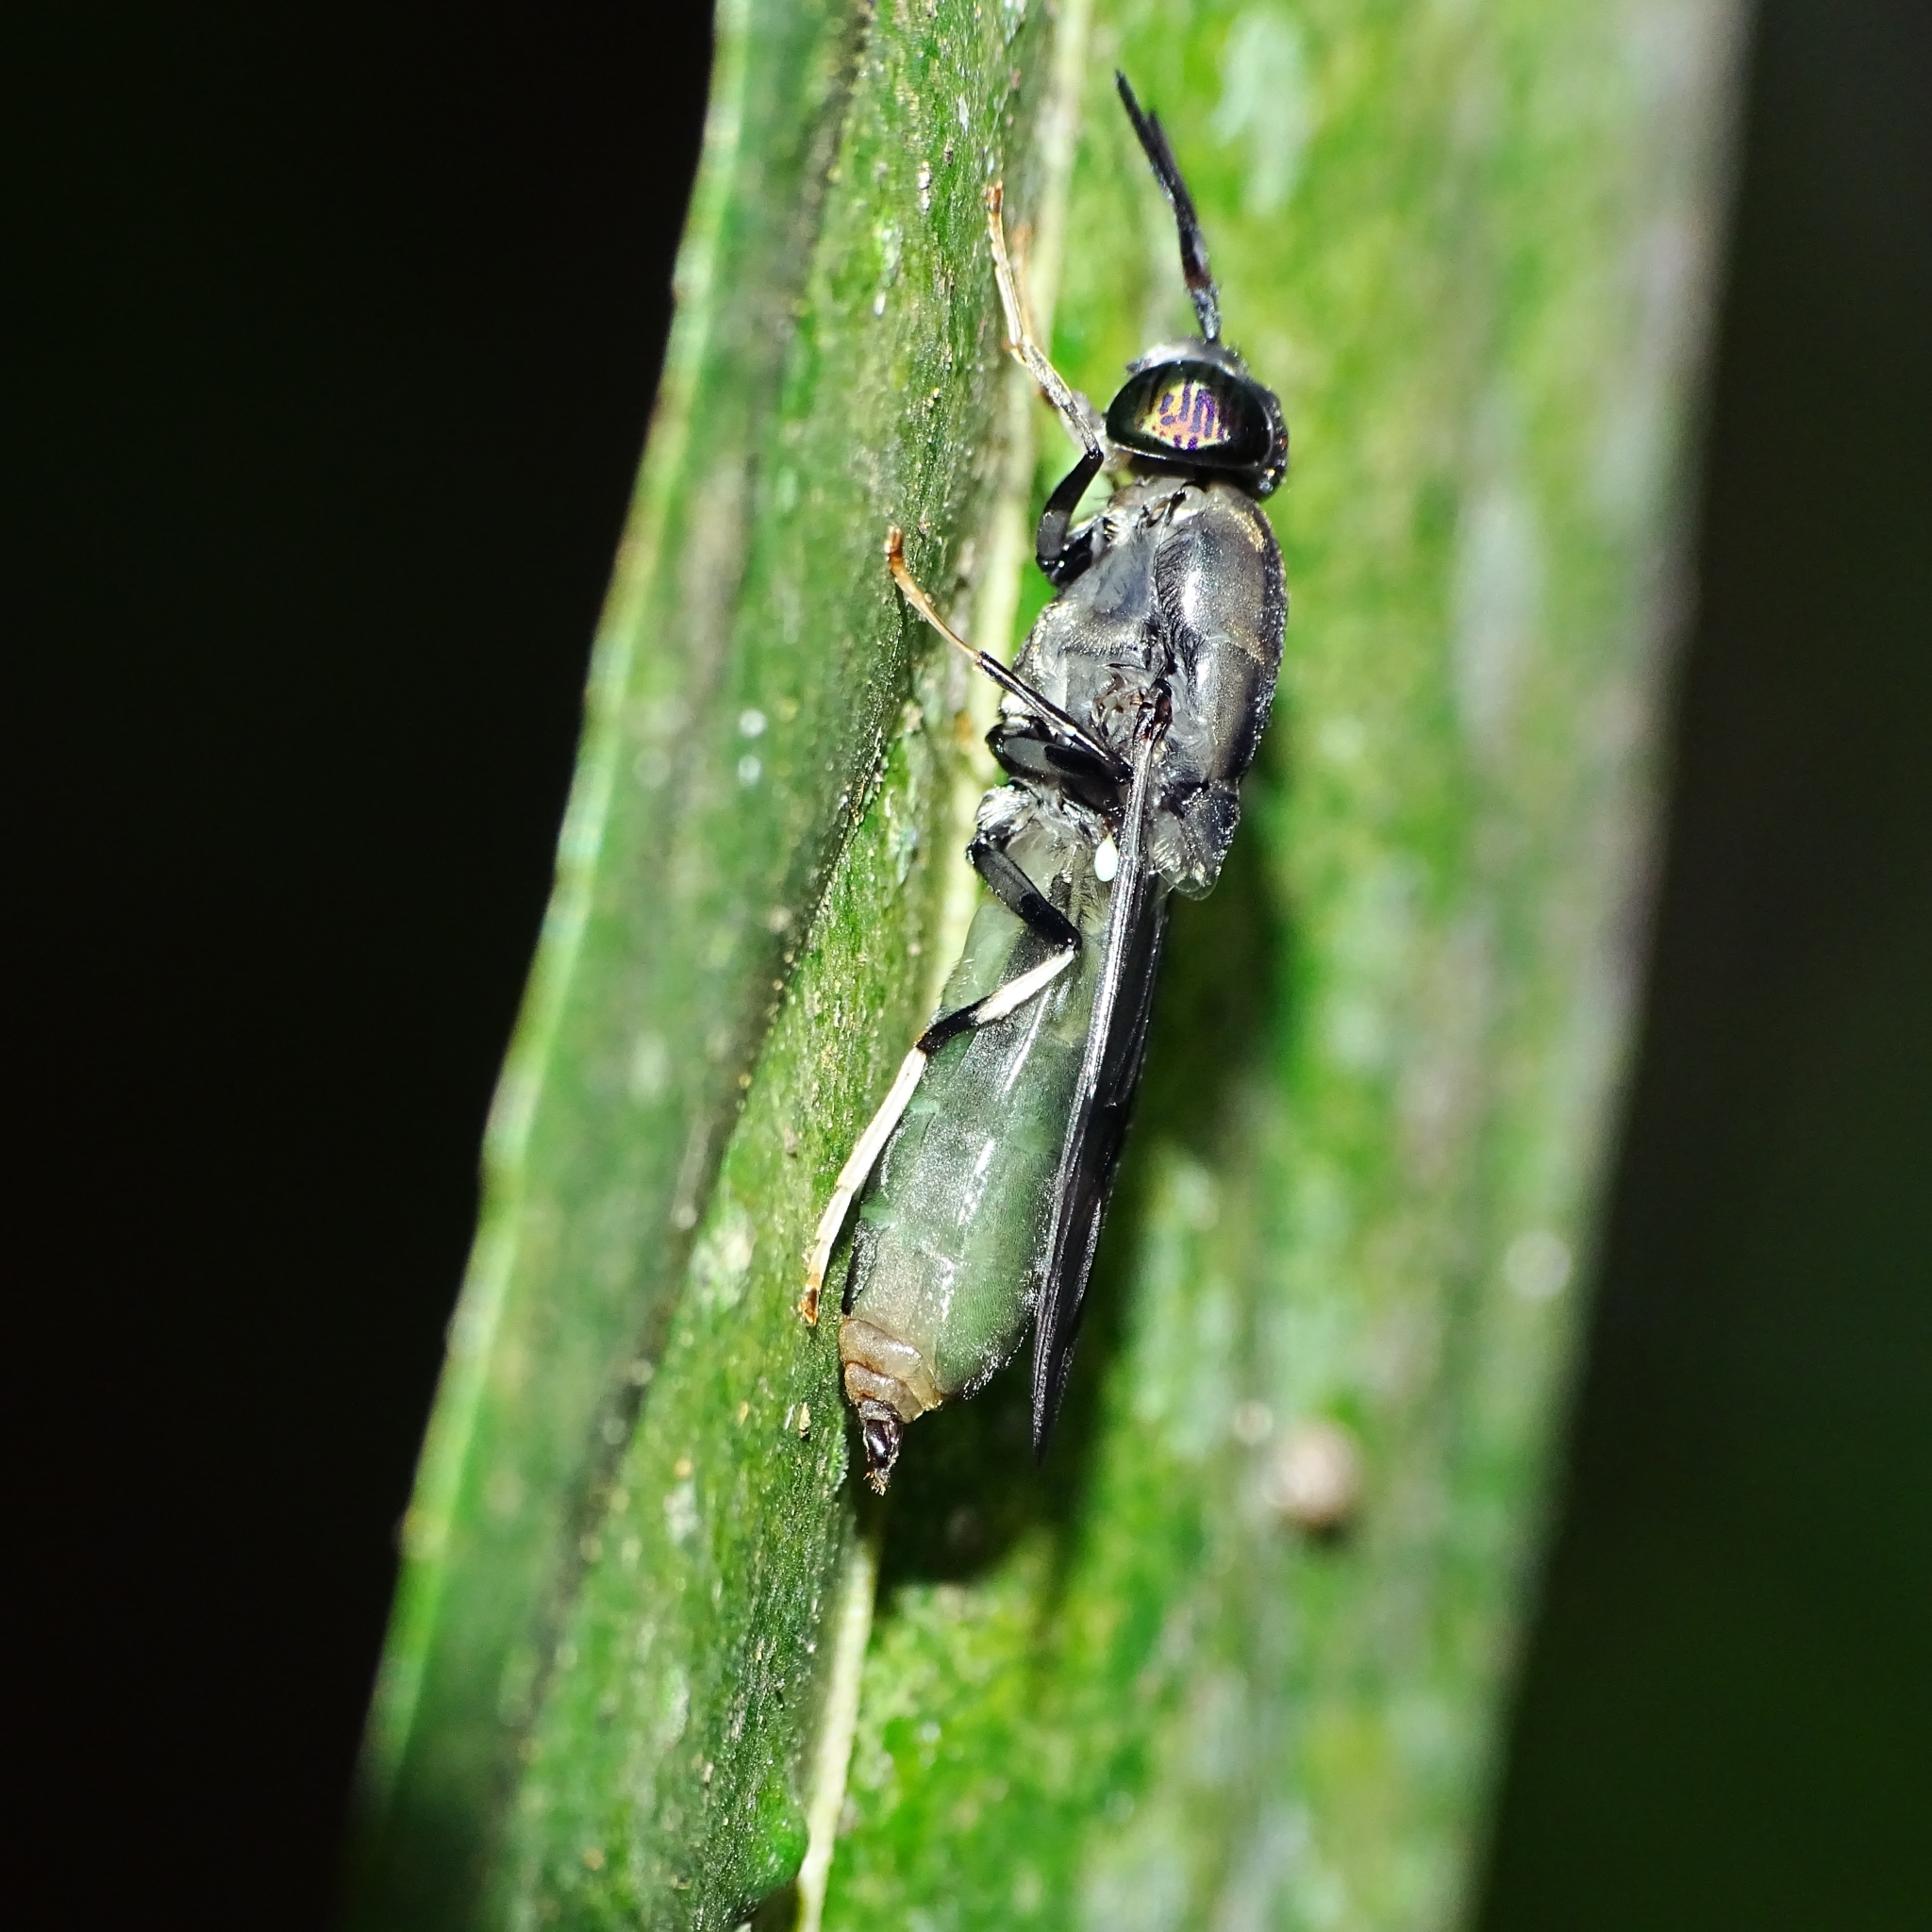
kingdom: Animalia
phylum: Arthropoda
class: Insecta
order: Diptera
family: Stratiomyidae
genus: Hermetia
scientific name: Hermetia illucens
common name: Black soldier fly
